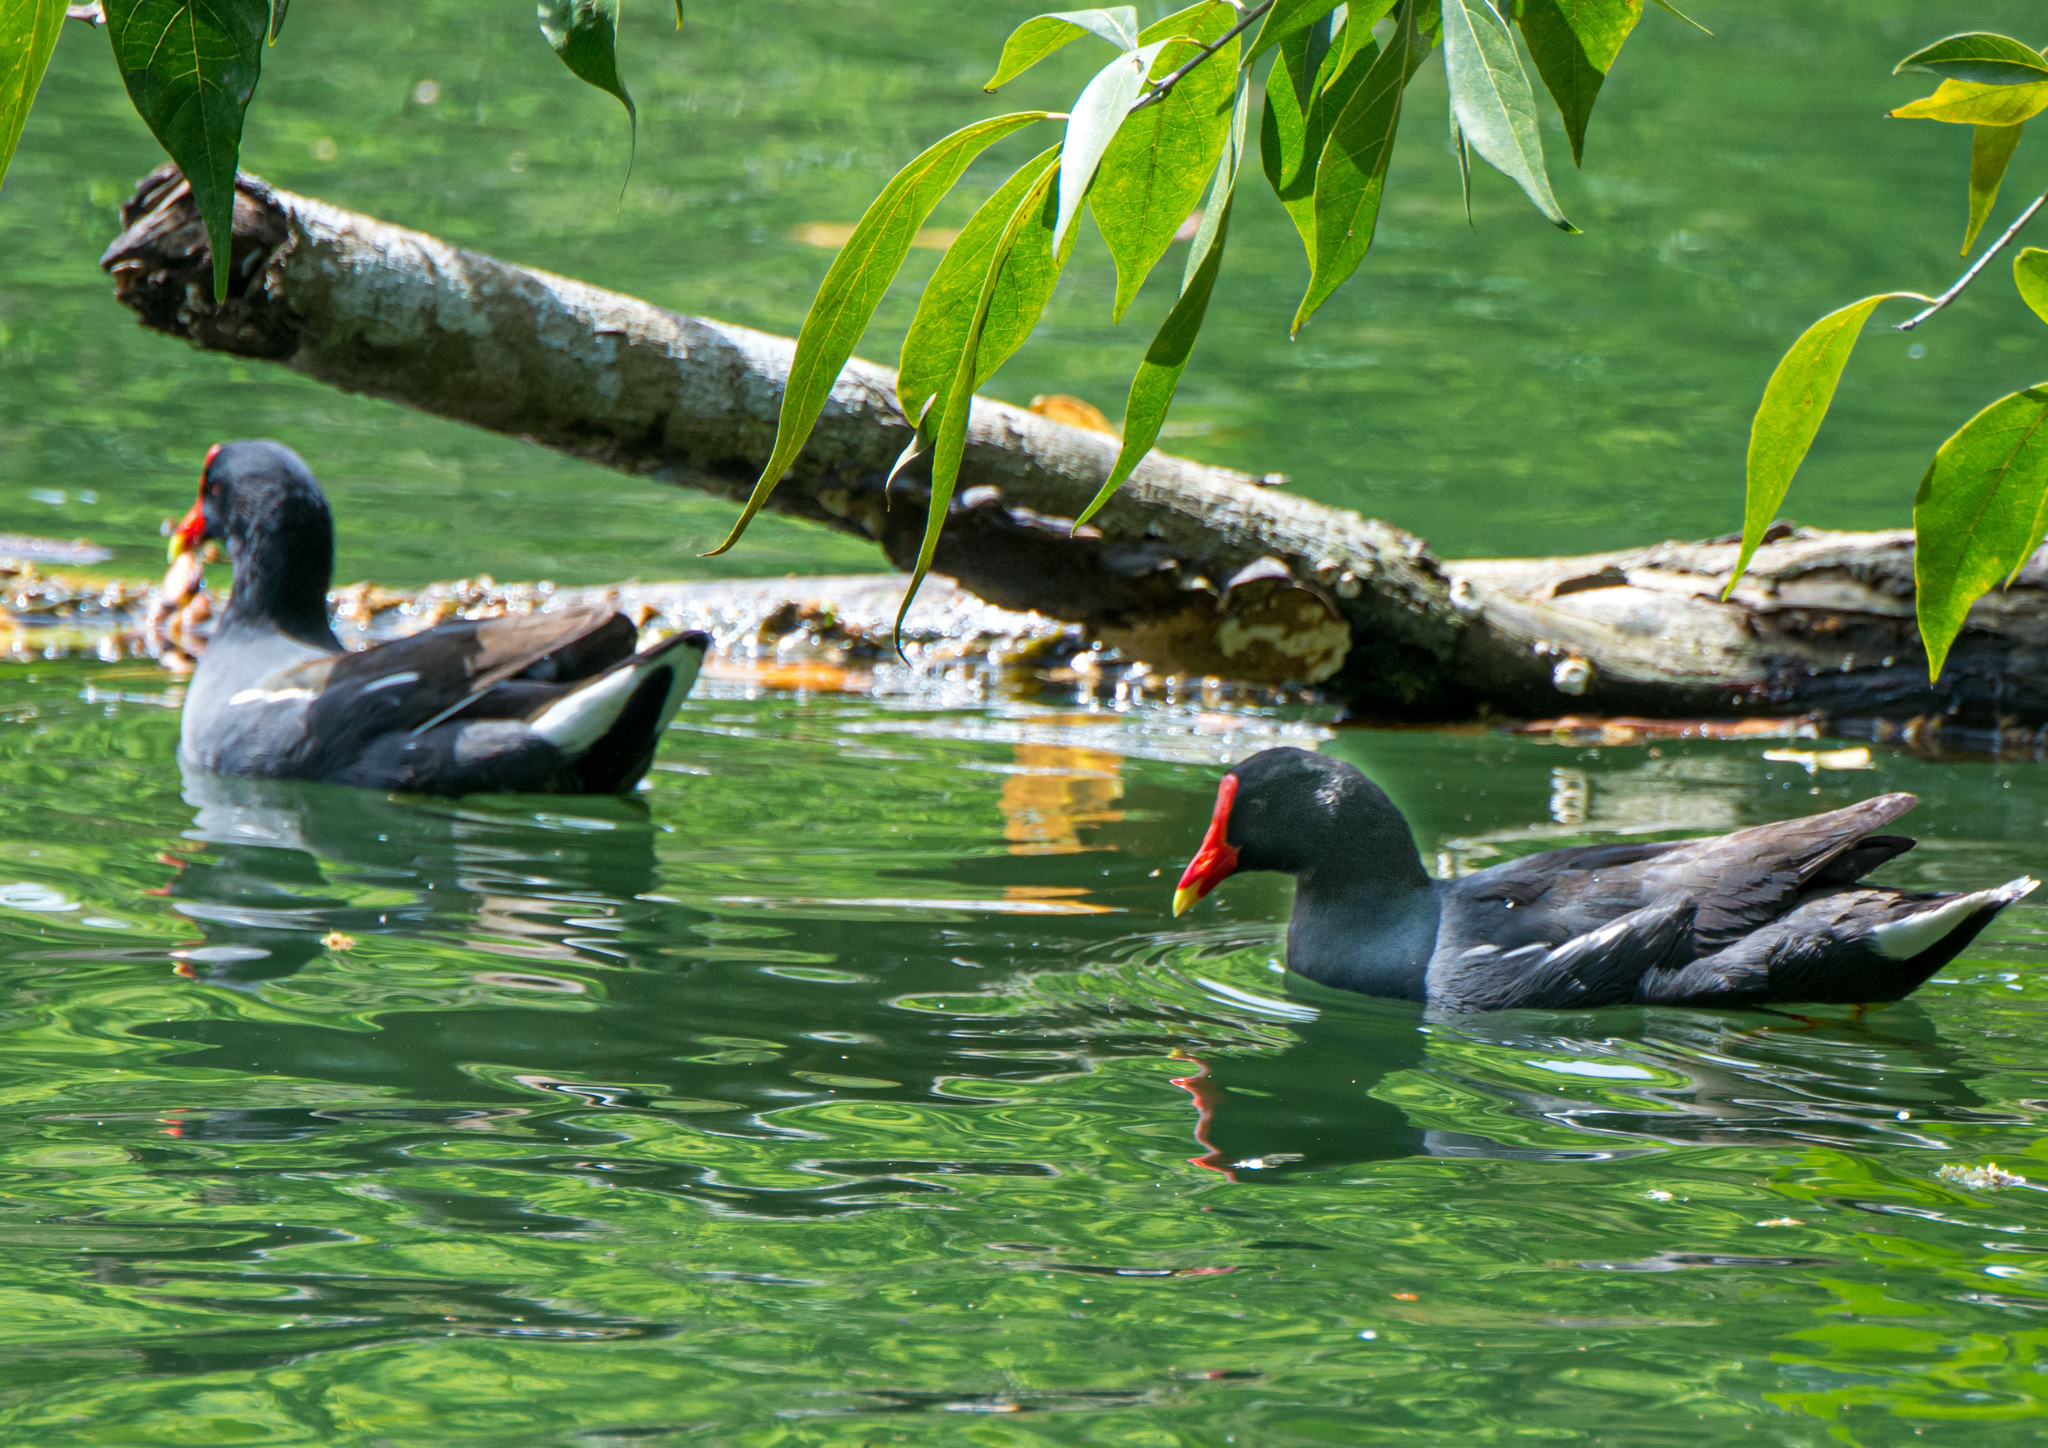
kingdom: Animalia
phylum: Chordata
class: Aves
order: Gruiformes
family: Rallidae
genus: Gallinula
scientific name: Gallinula chloropus
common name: Common moorhen
